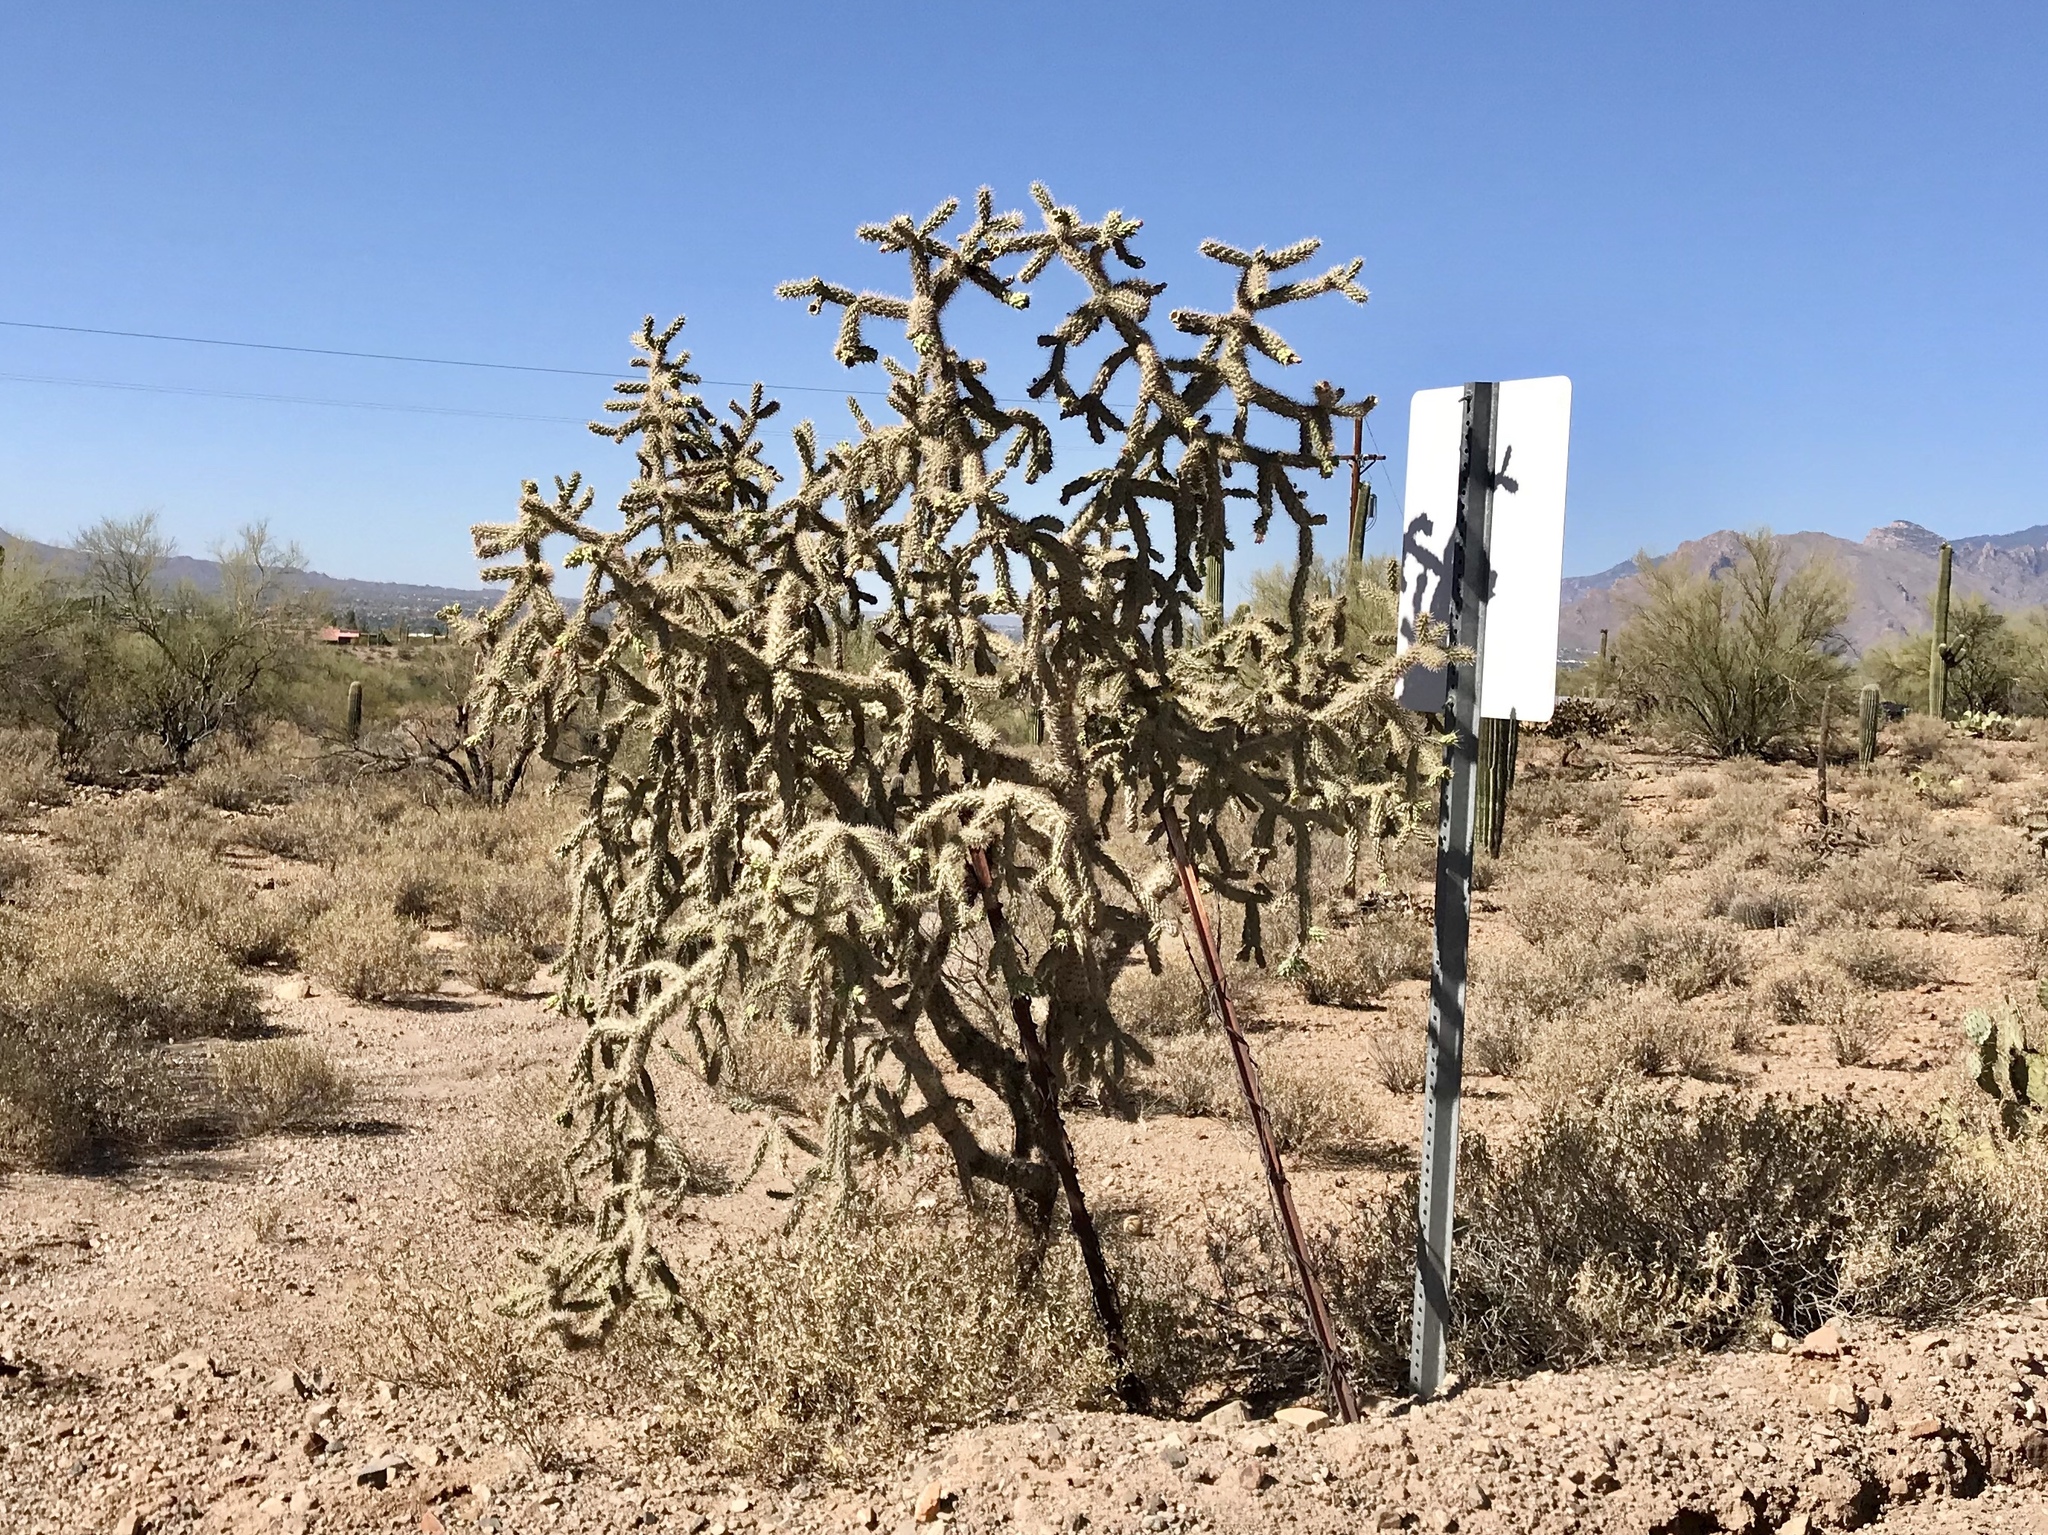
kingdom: Plantae
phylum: Tracheophyta
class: Magnoliopsida
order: Caryophyllales
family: Cactaceae
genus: Cylindropuntia
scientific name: Cylindropuntia imbricata
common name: Candelabrum cactus
